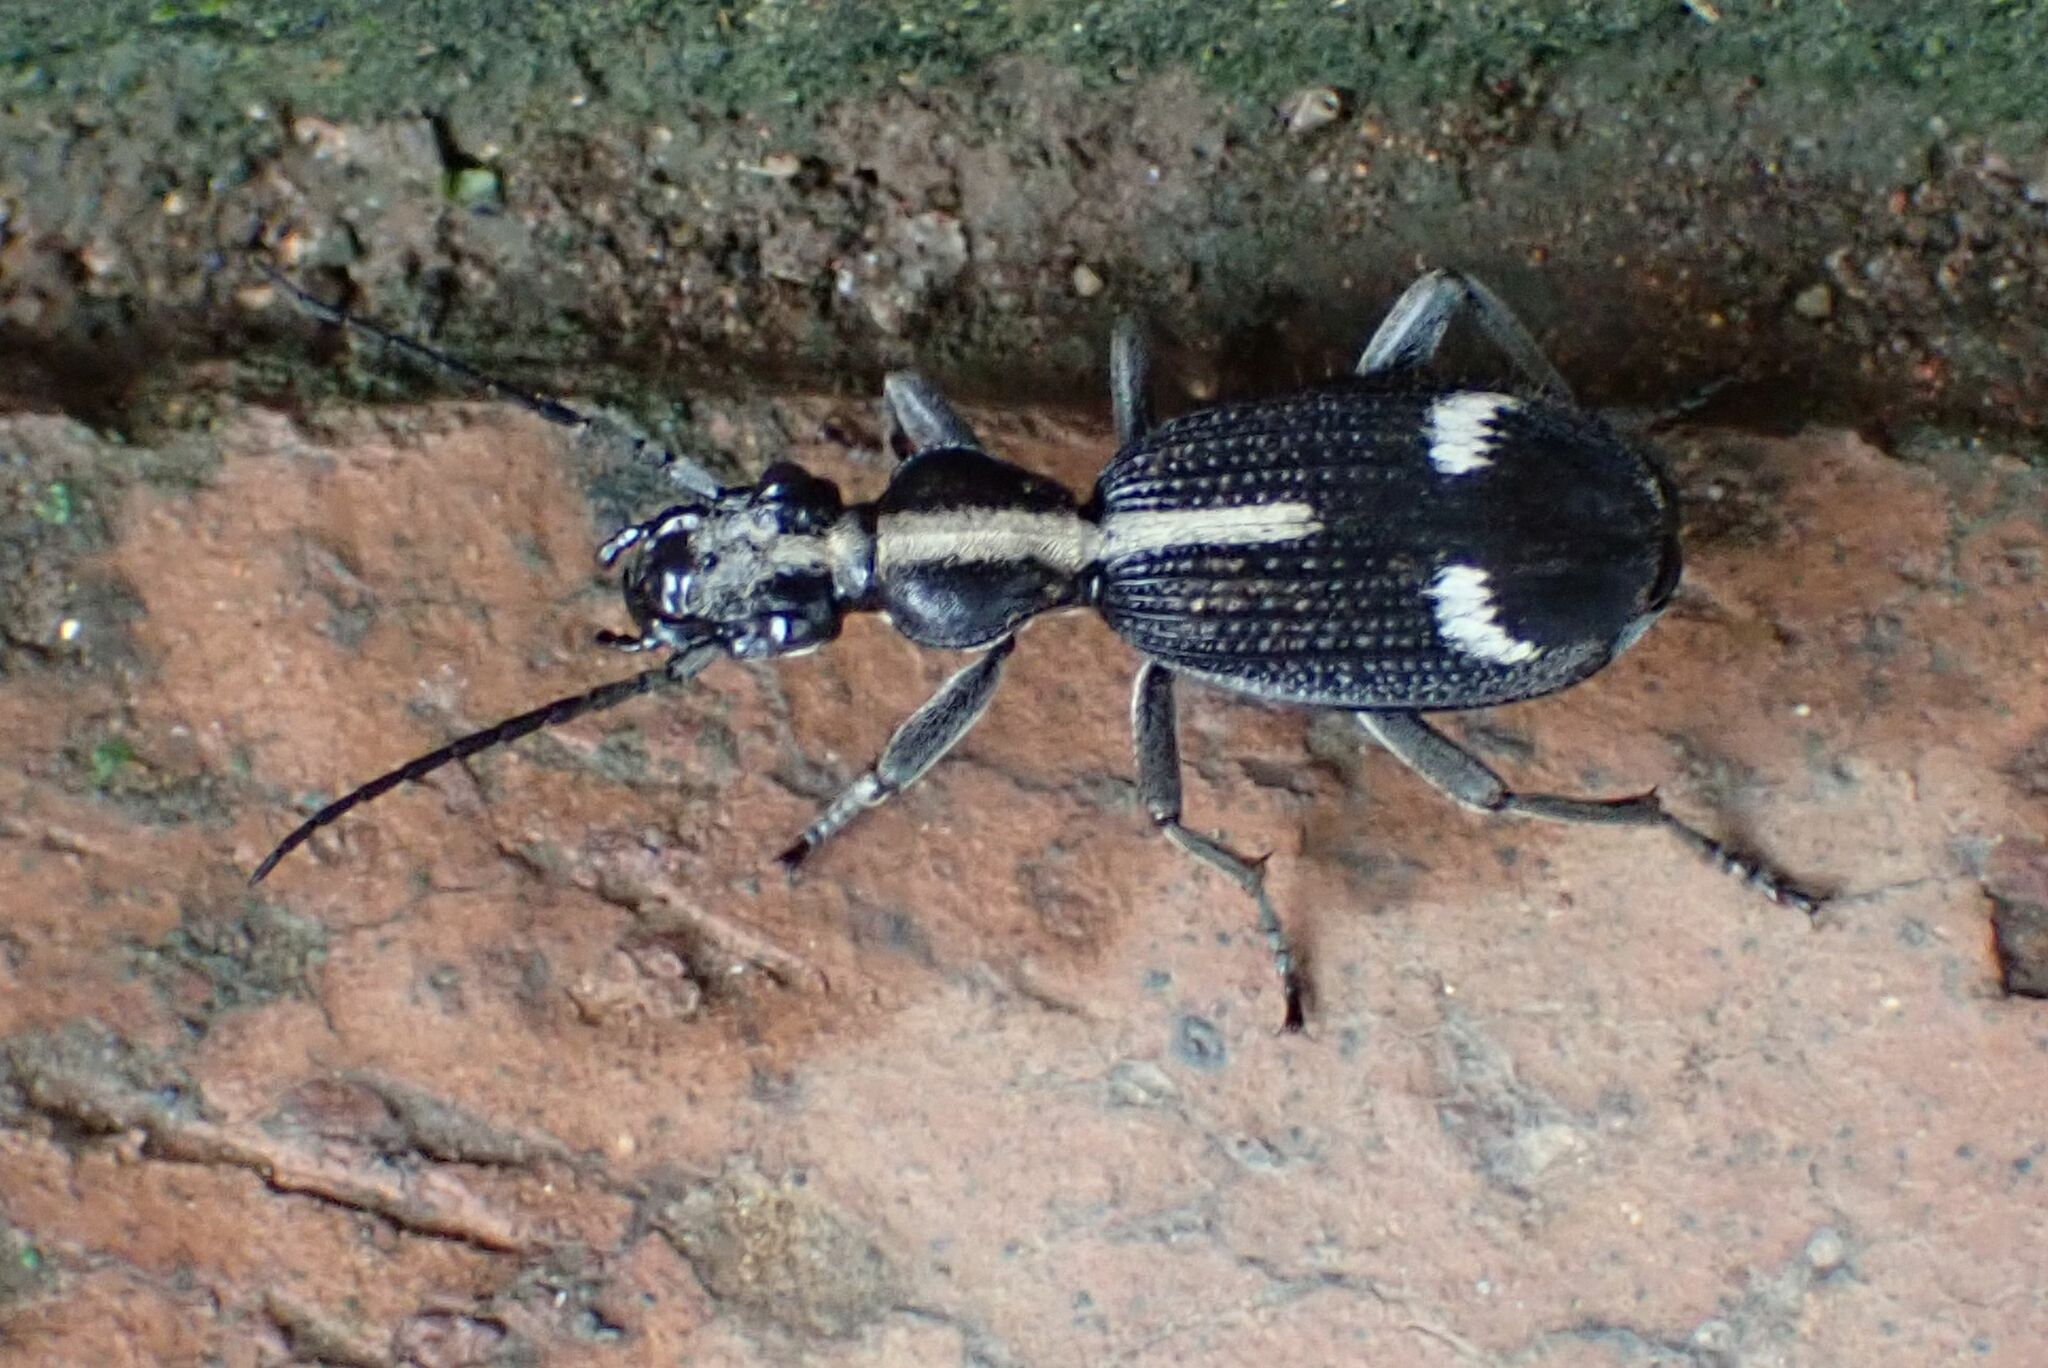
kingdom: Animalia
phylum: Arthropoda
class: Insecta
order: Coleoptera
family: Carabidae
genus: Cypholoba
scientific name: Cypholoba graphipteroides
